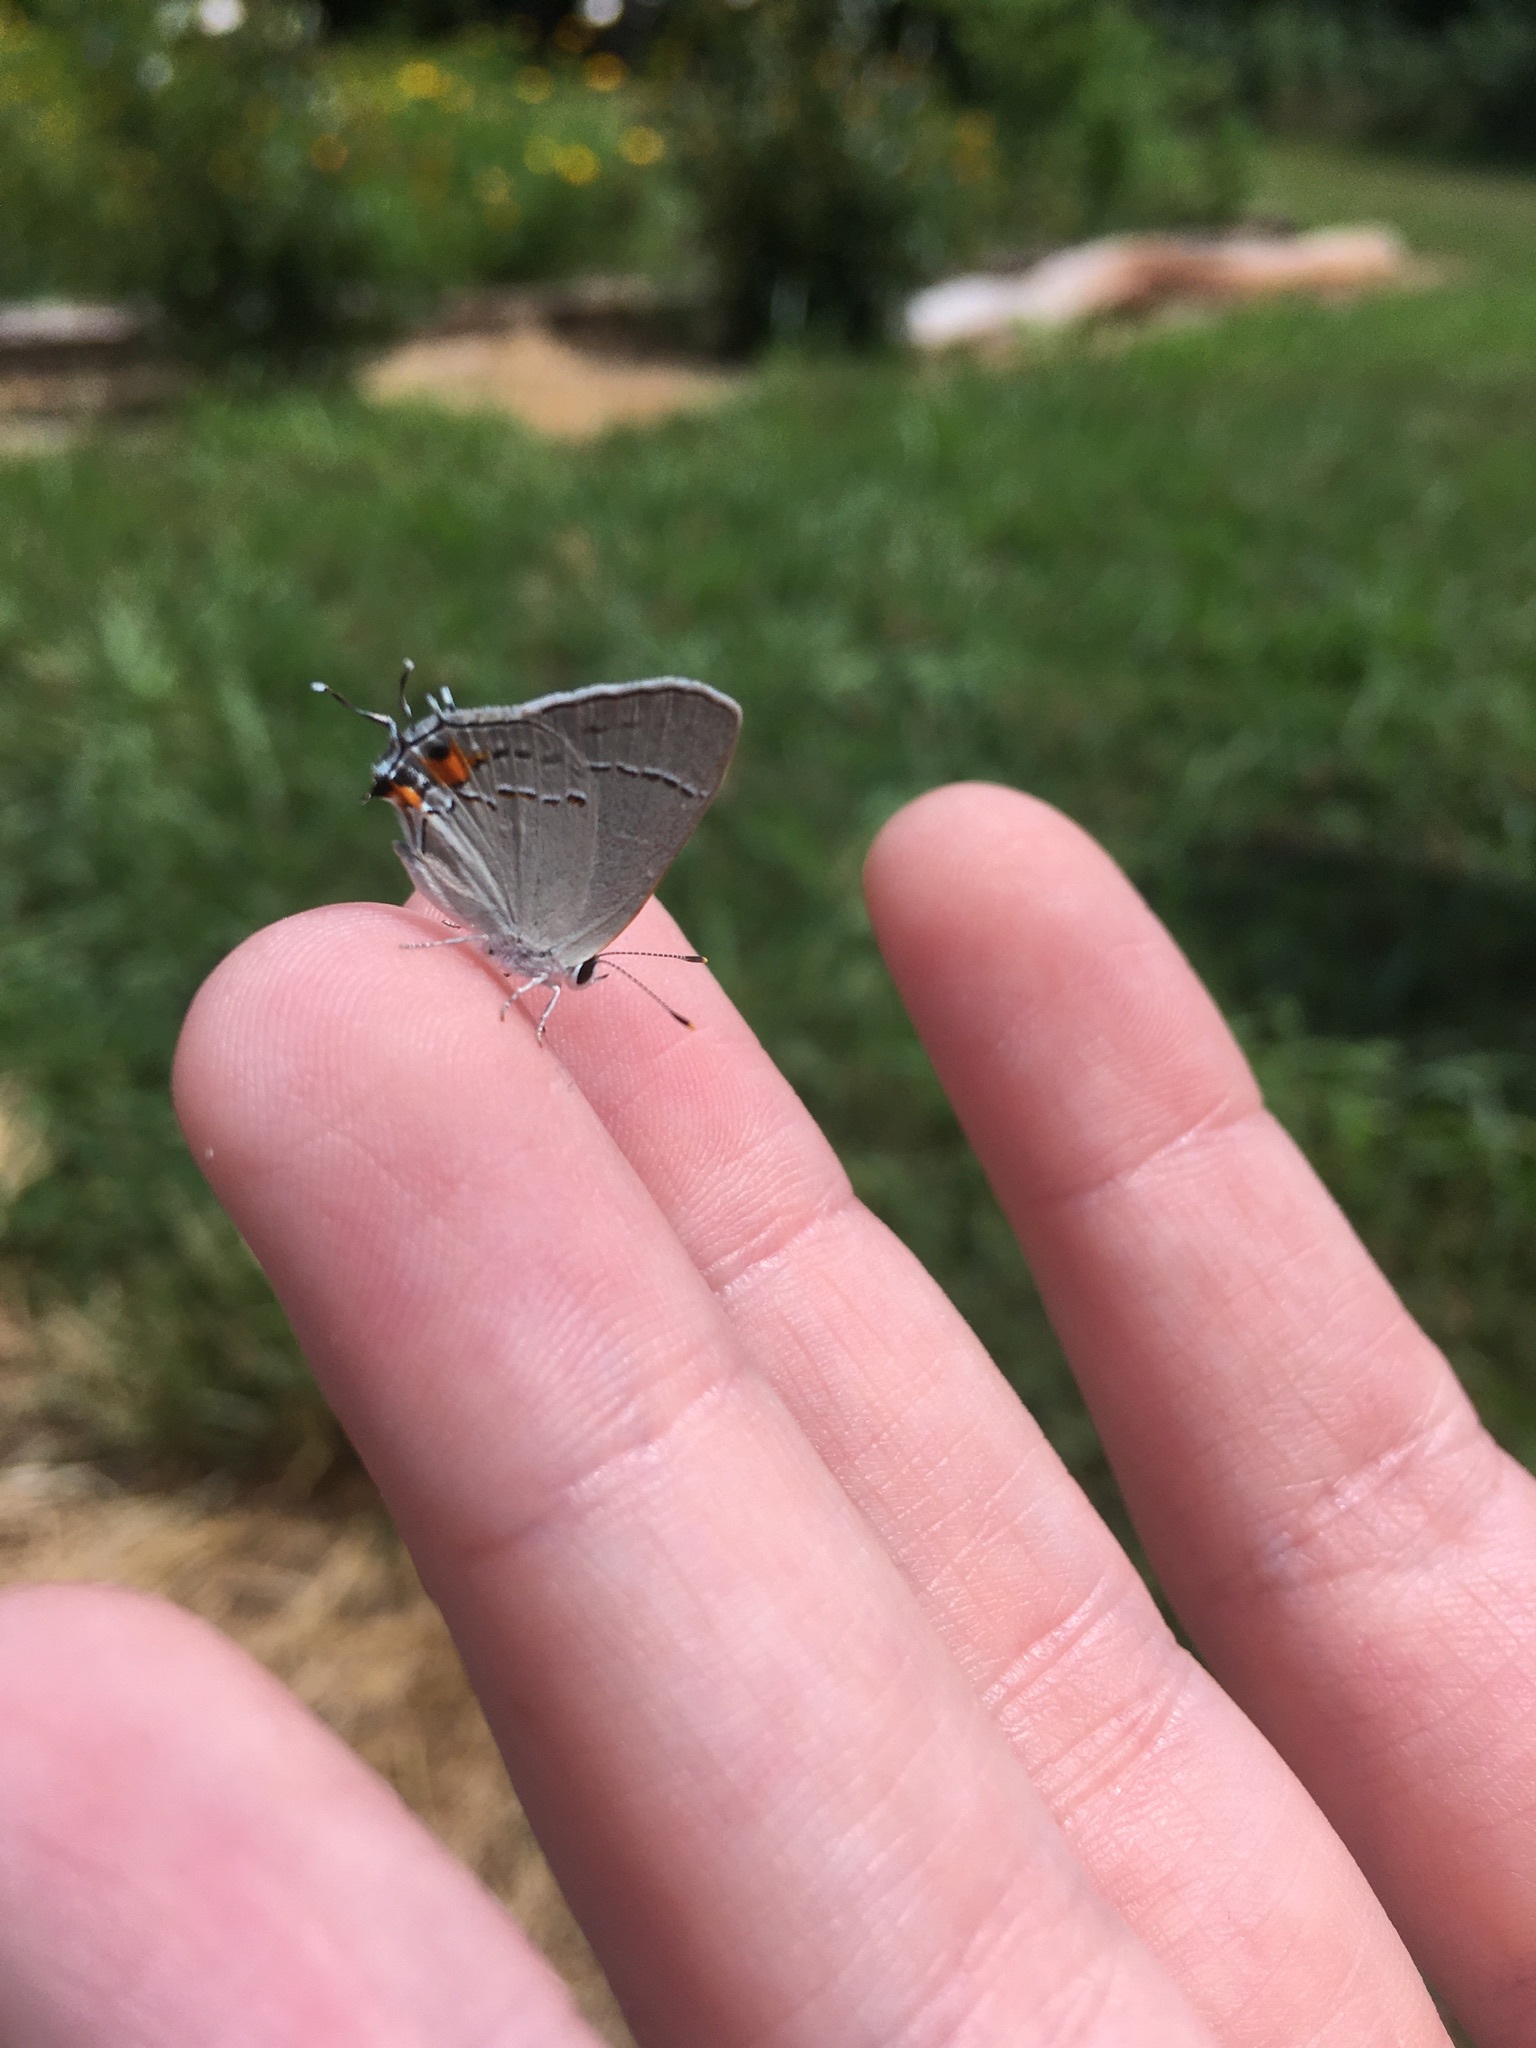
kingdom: Animalia
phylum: Arthropoda
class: Insecta
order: Lepidoptera
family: Lycaenidae
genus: Strymon
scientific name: Strymon melinus
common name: Gray hairstreak
